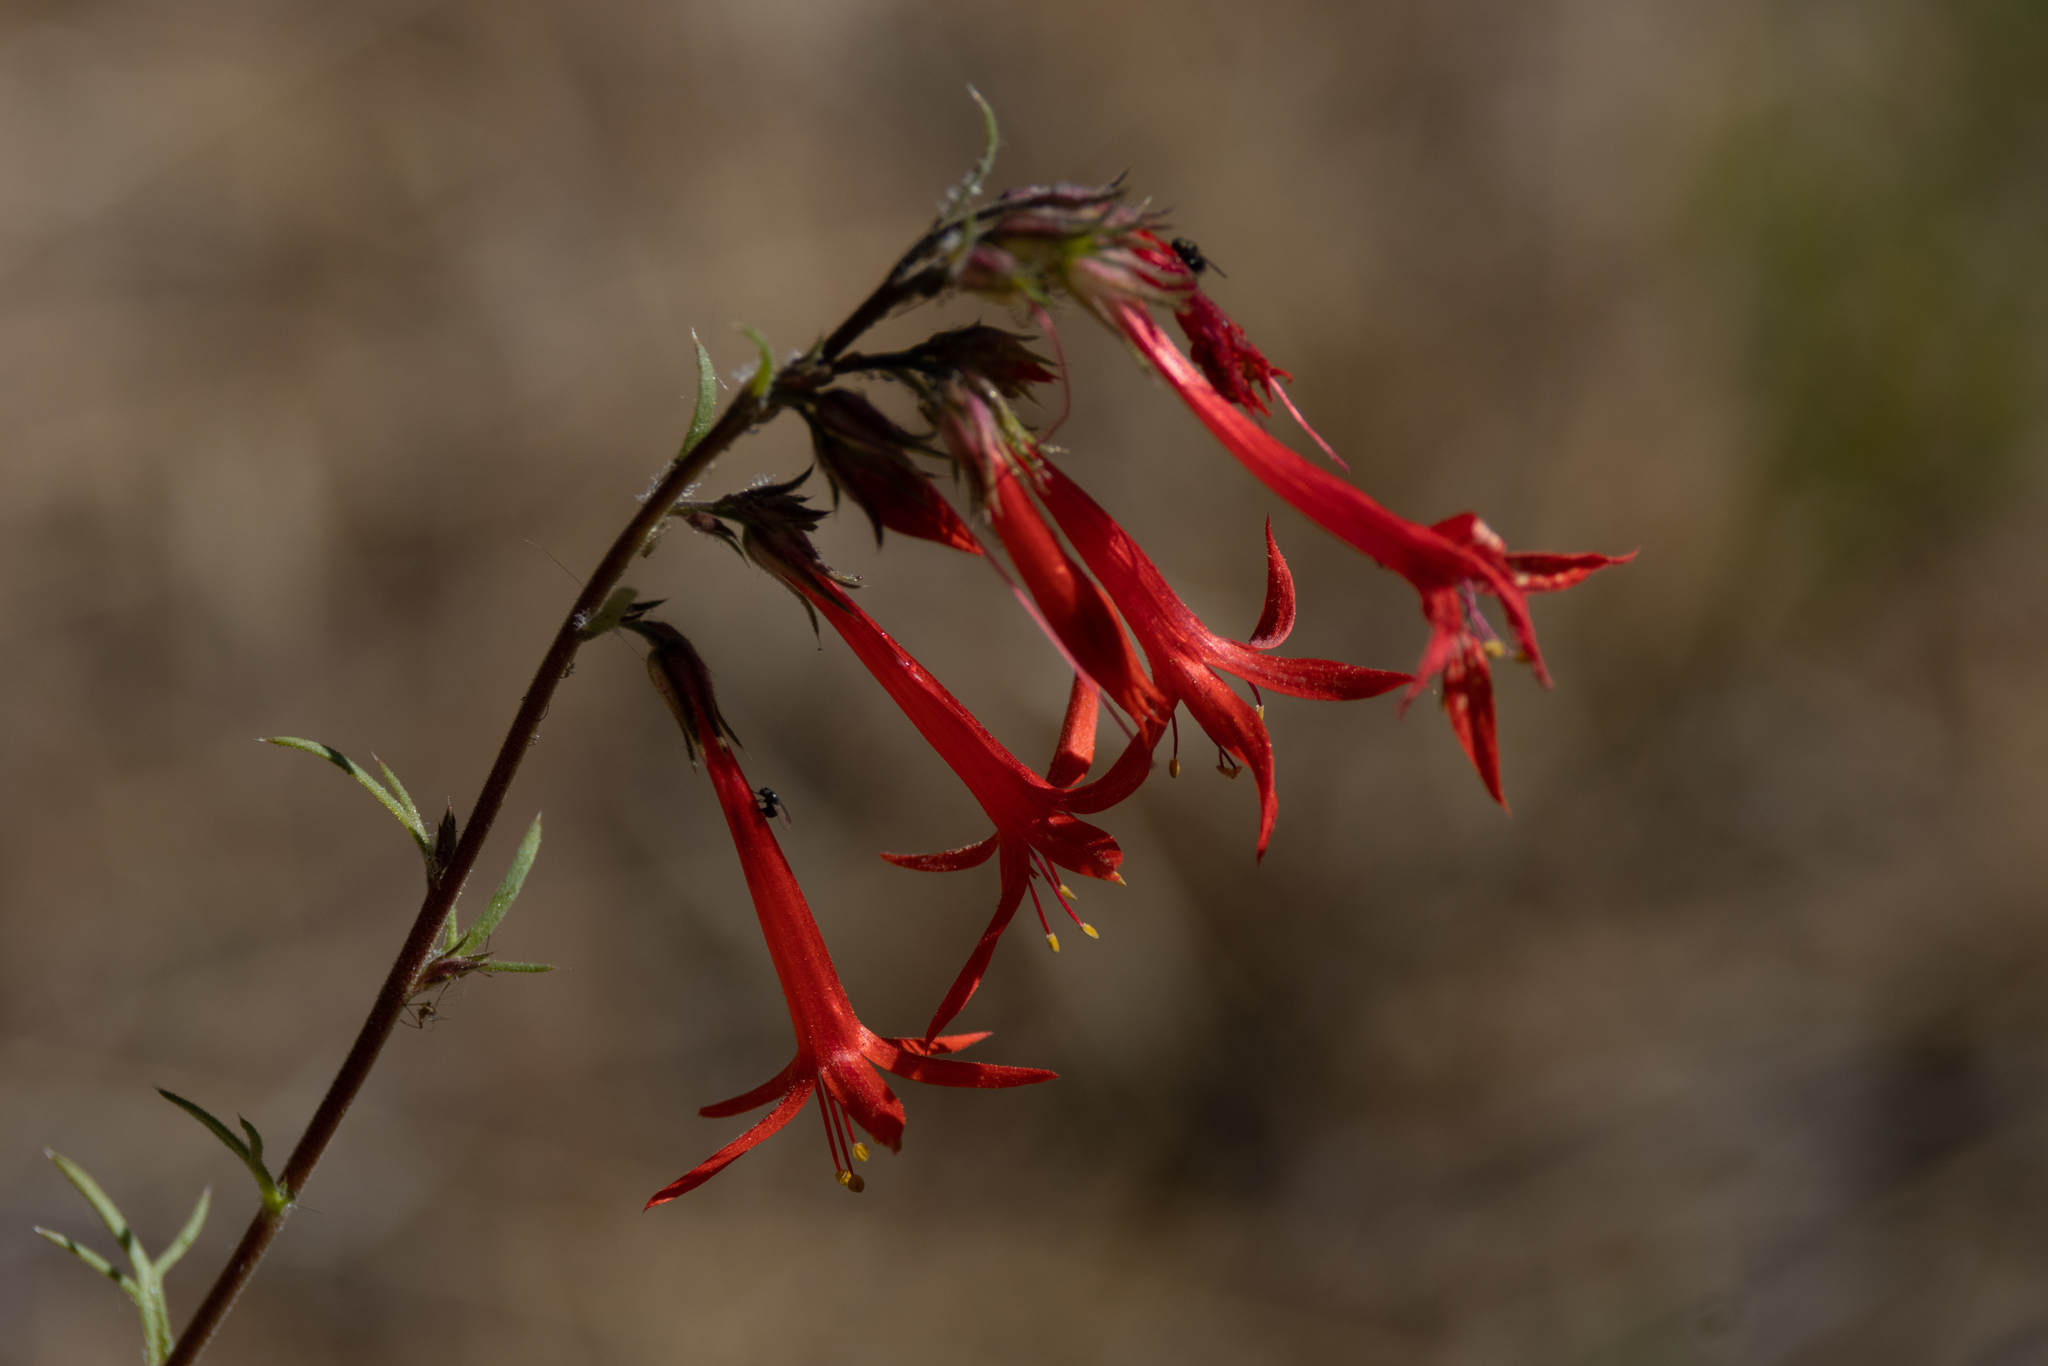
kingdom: Plantae
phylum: Tracheophyta
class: Magnoliopsida
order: Ericales
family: Polemoniaceae
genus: Ipomopsis
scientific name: Ipomopsis aggregata
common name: Scarlet gilia
